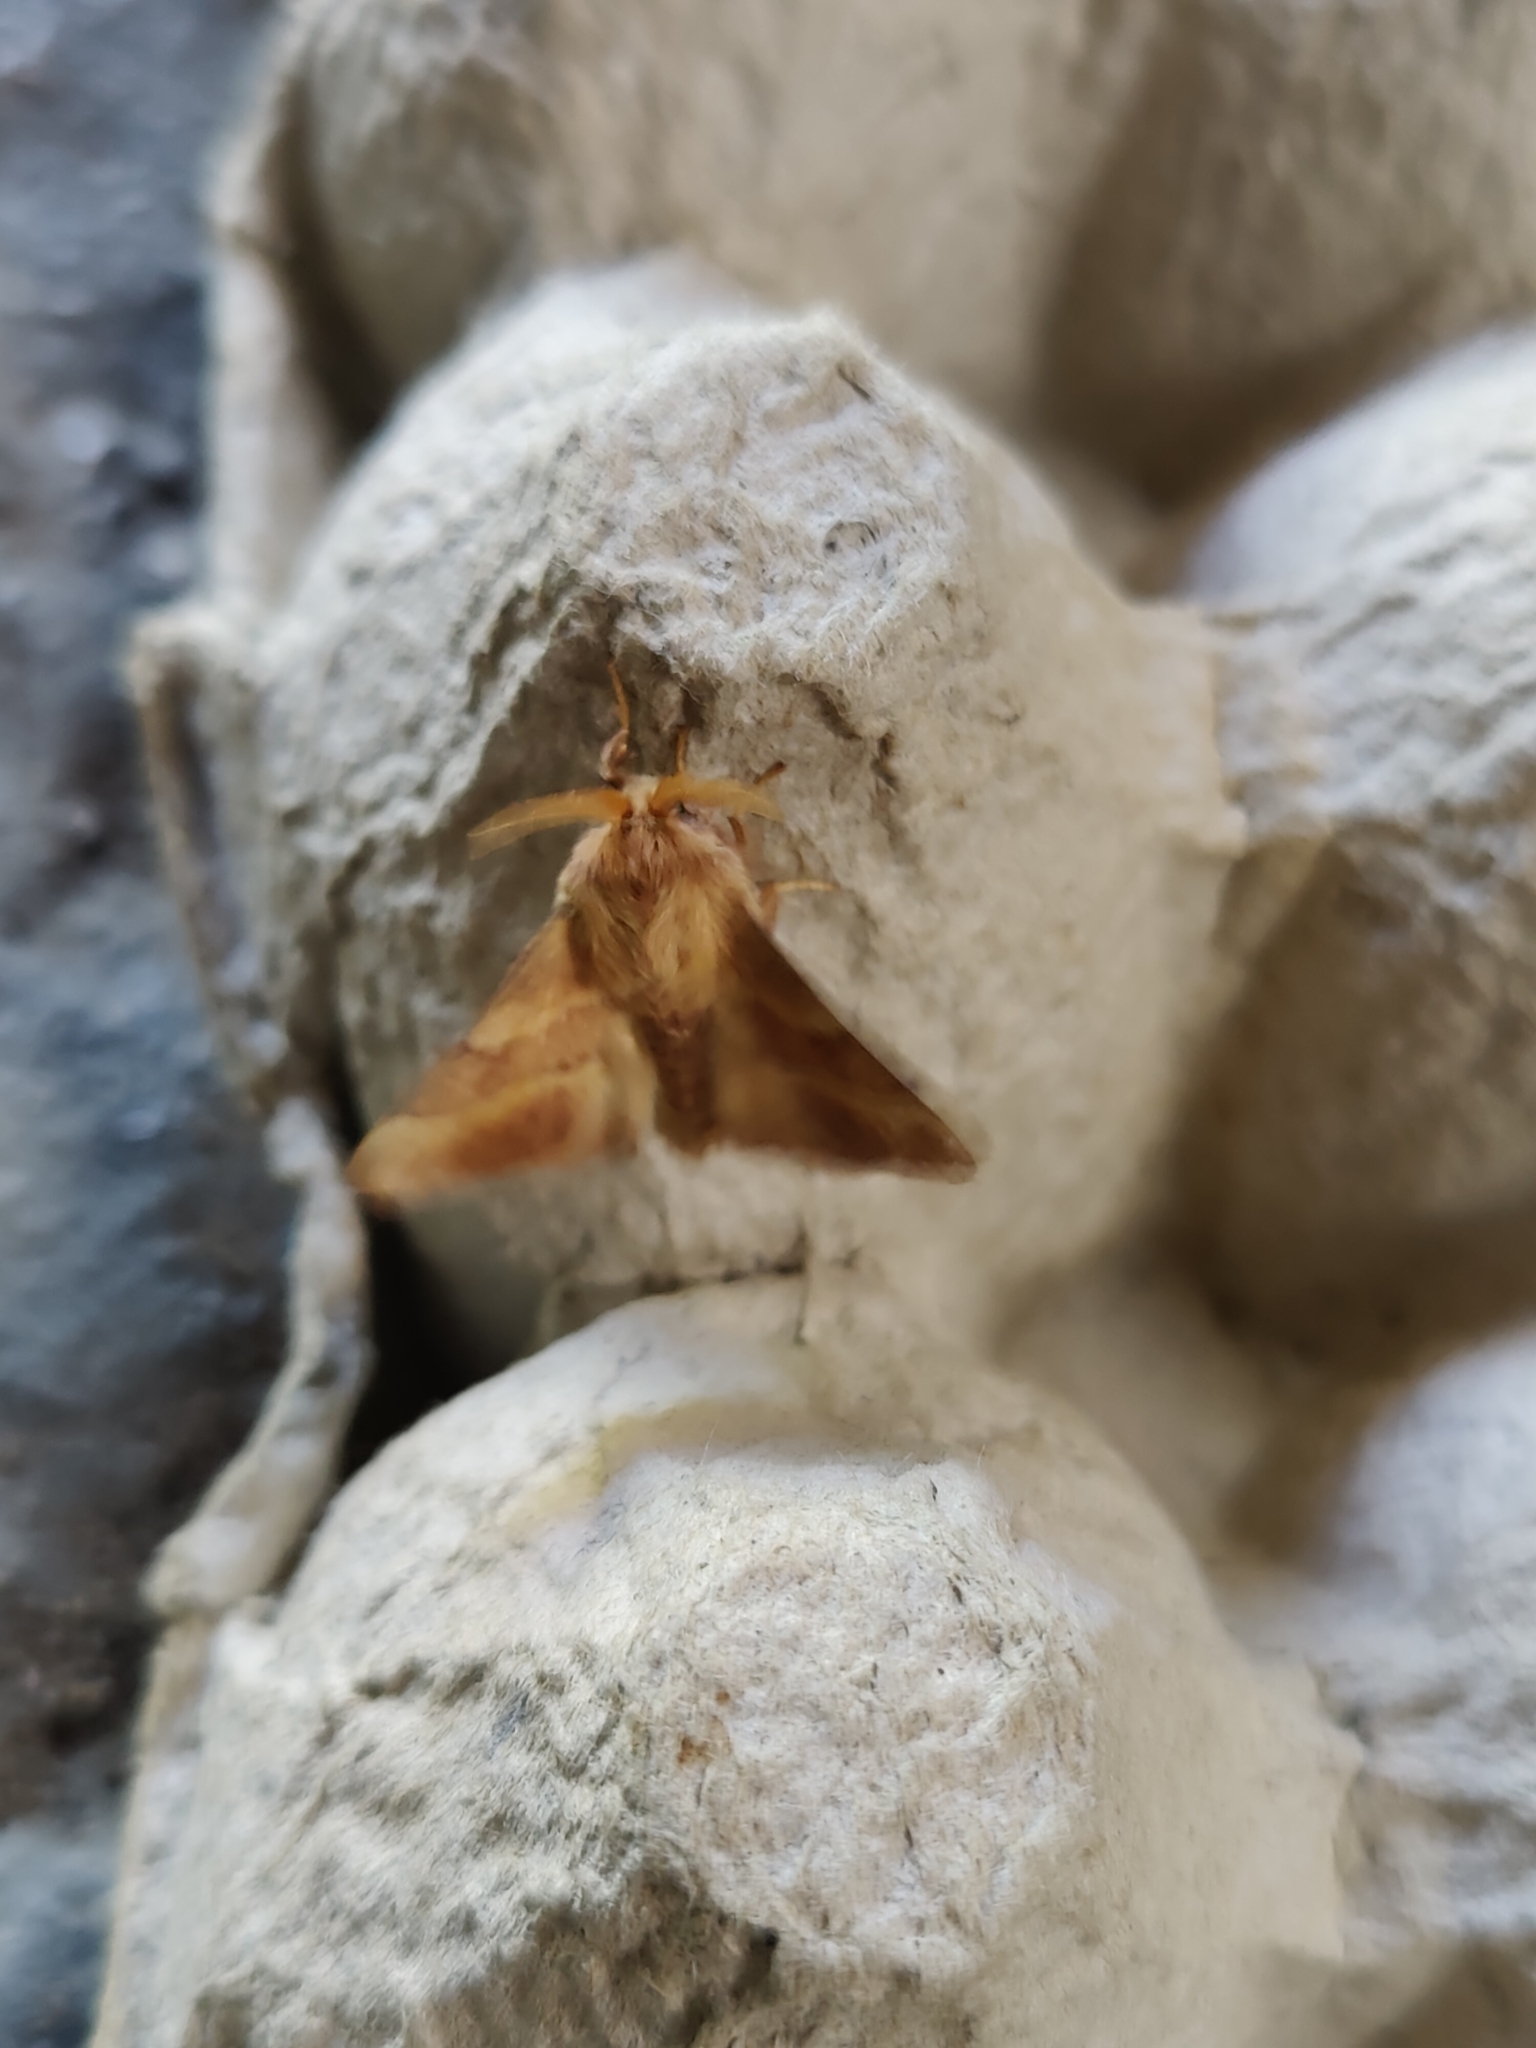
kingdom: Animalia
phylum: Arthropoda
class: Insecta
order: Lepidoptera
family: Lasiocampidae
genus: Malacosoma
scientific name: Malacosoma neustria
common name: The lackey
